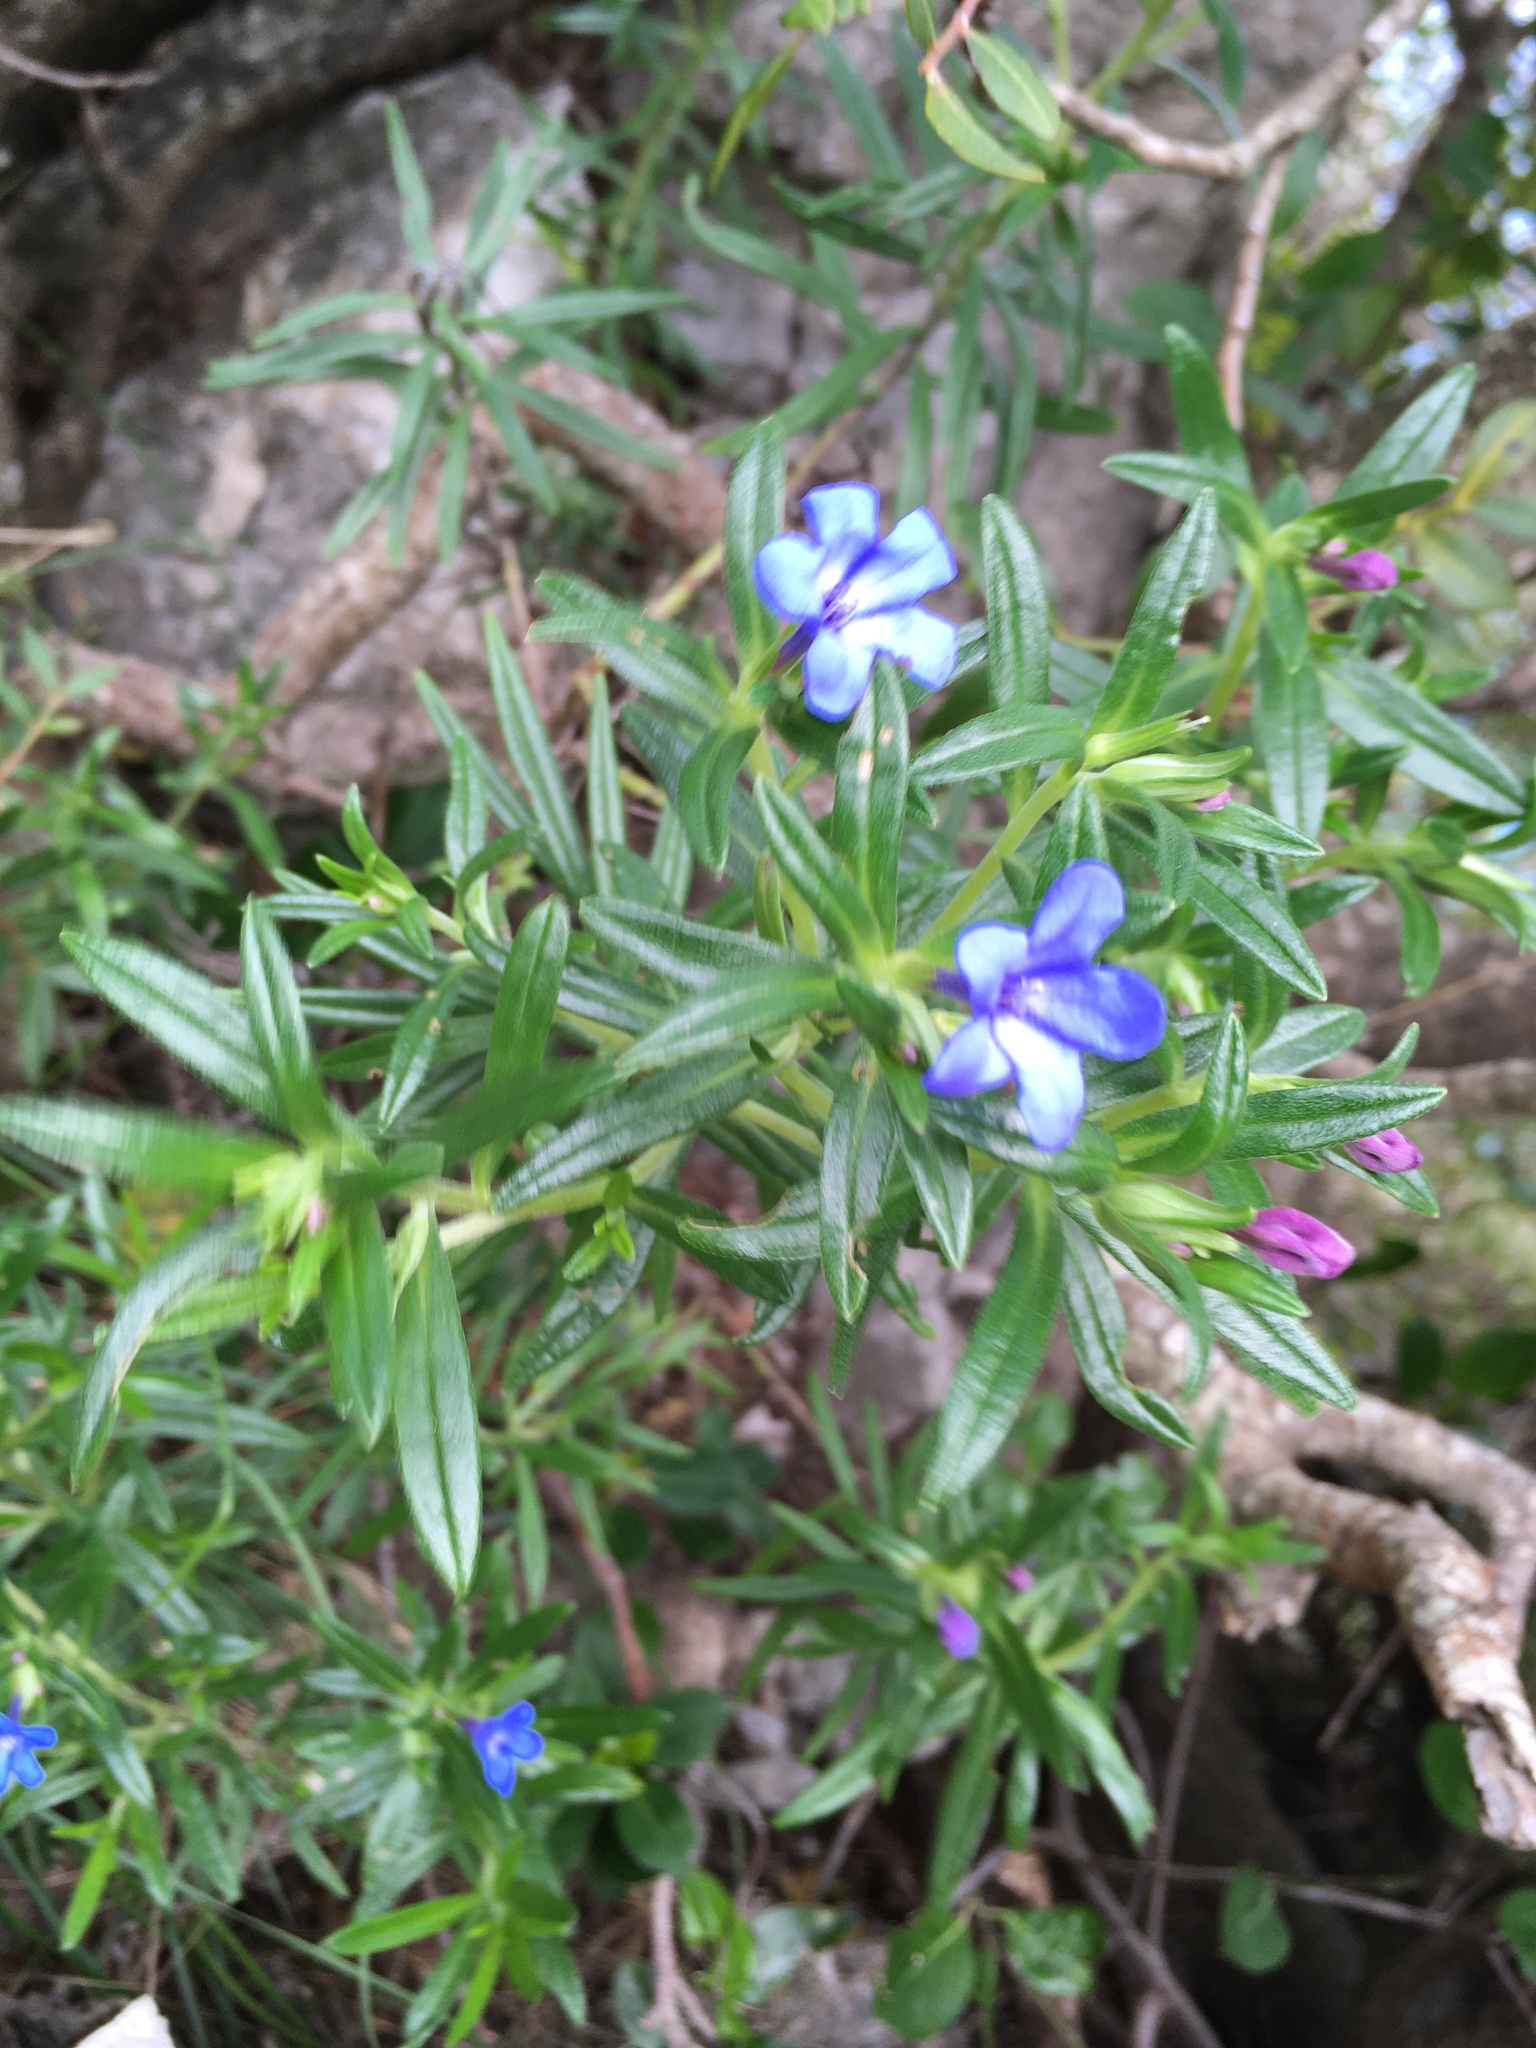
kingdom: Plantae
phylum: Tracheophyta
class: Magnoliopsida
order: Boraginales
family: Boraginaceae
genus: Glandora
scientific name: Glandora rosmarinifolia
